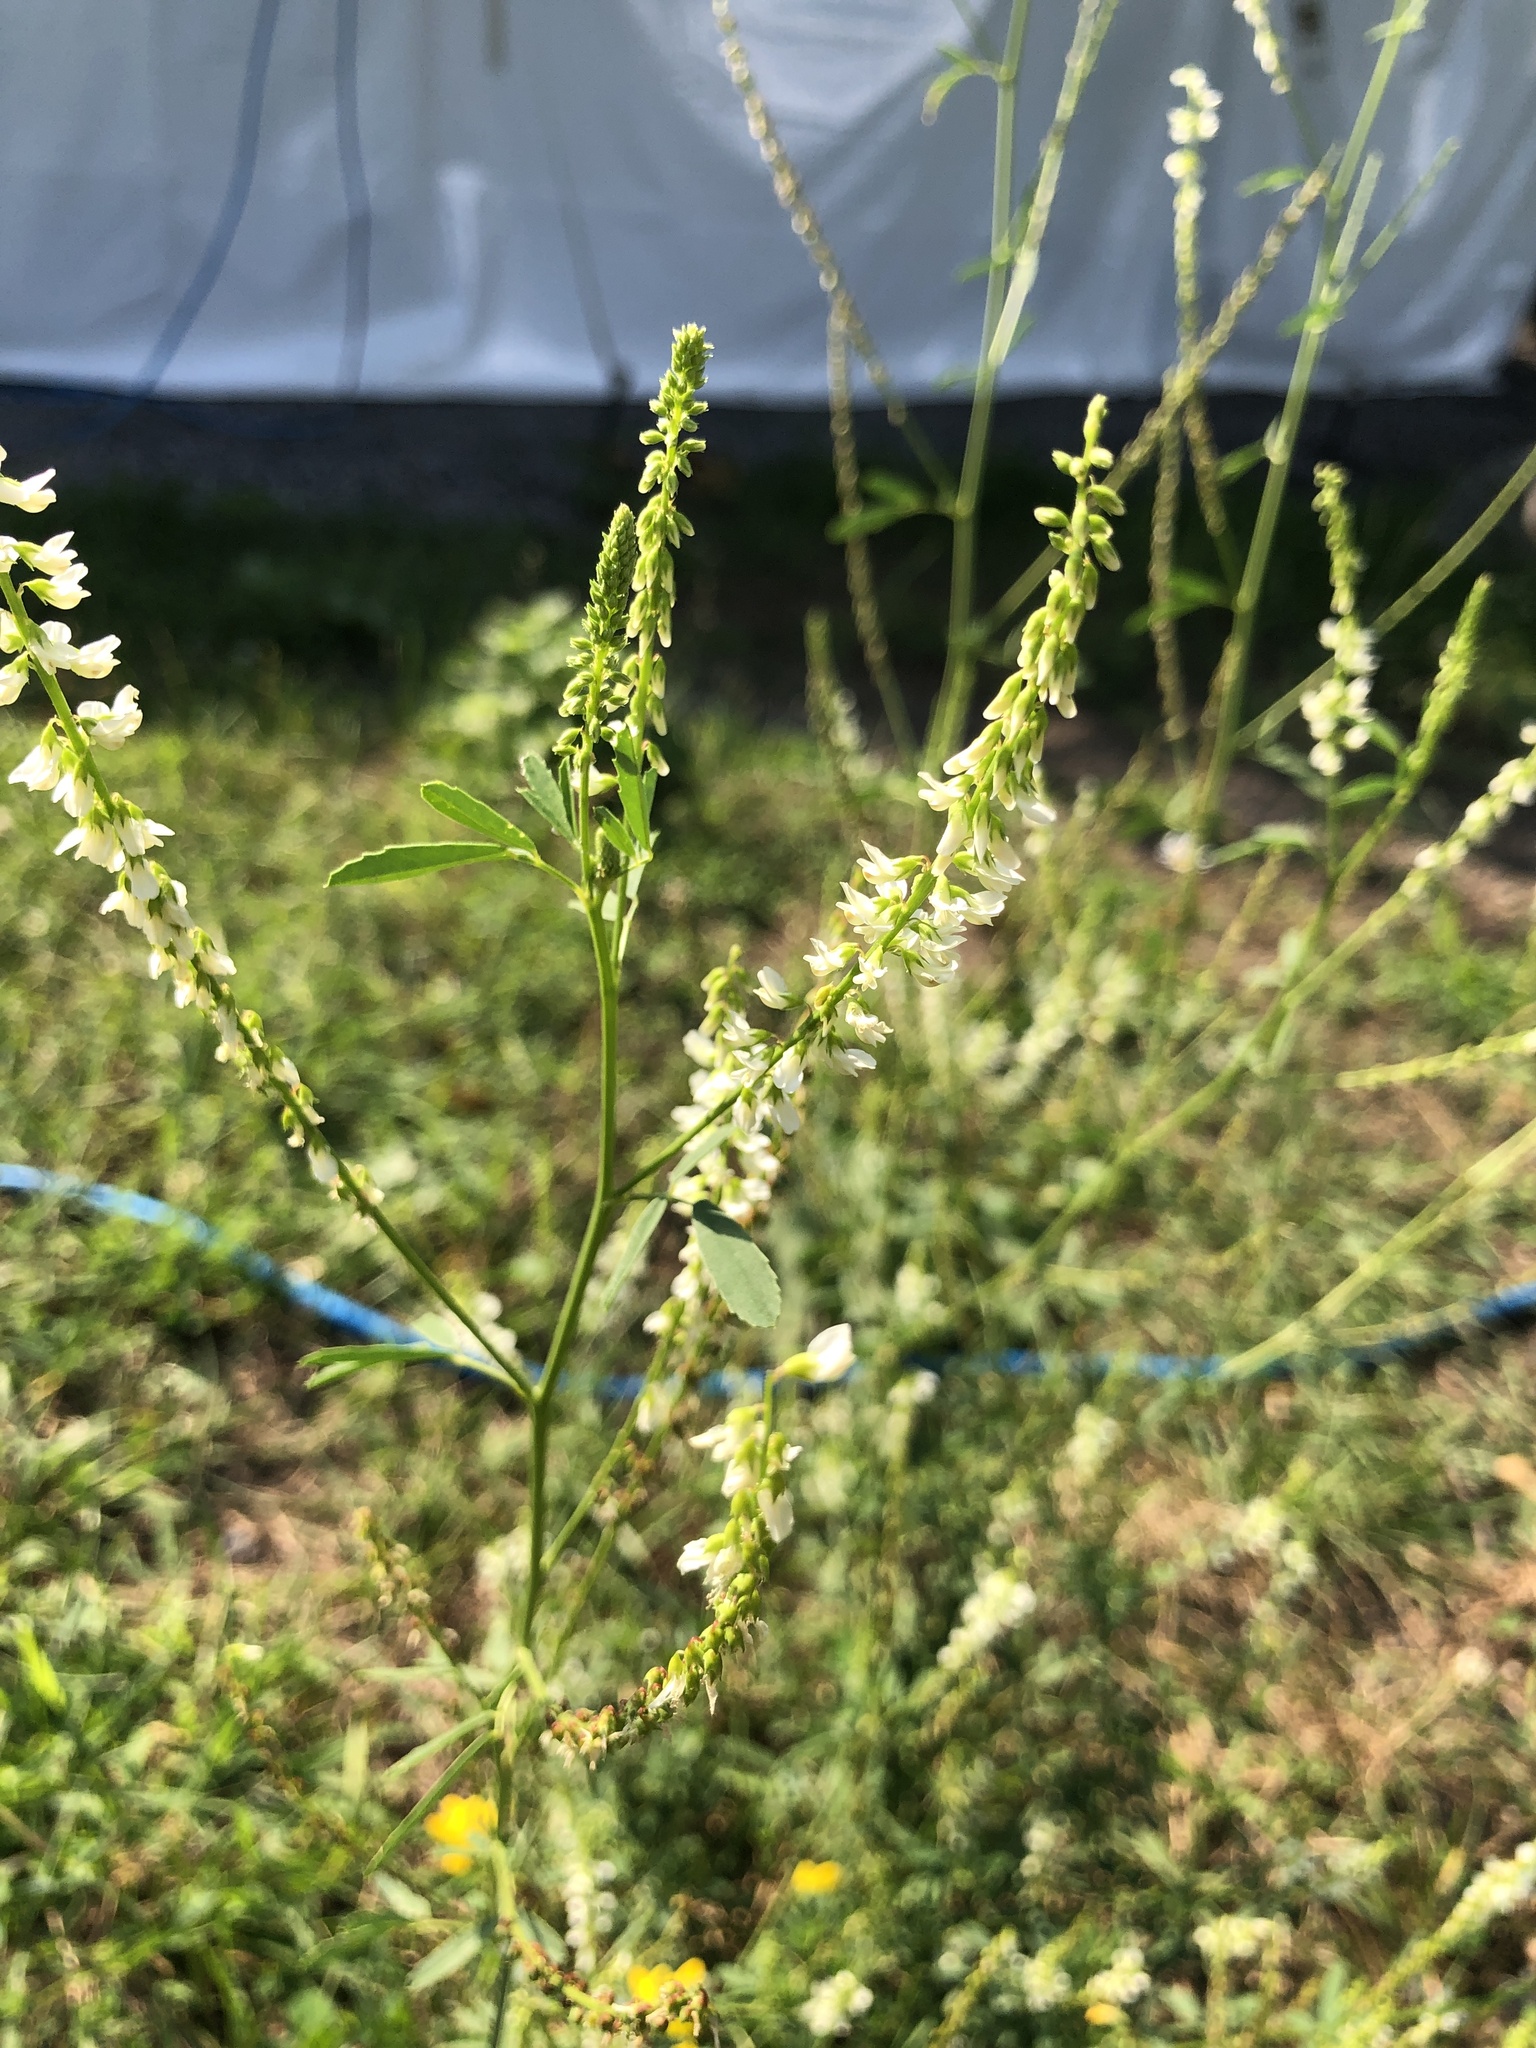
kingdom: Plantae
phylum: Tracheophyta
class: Magnoliopsida
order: Fabales
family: Fabaceae
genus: Melilotus
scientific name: Melilotus albus
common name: White melilot
